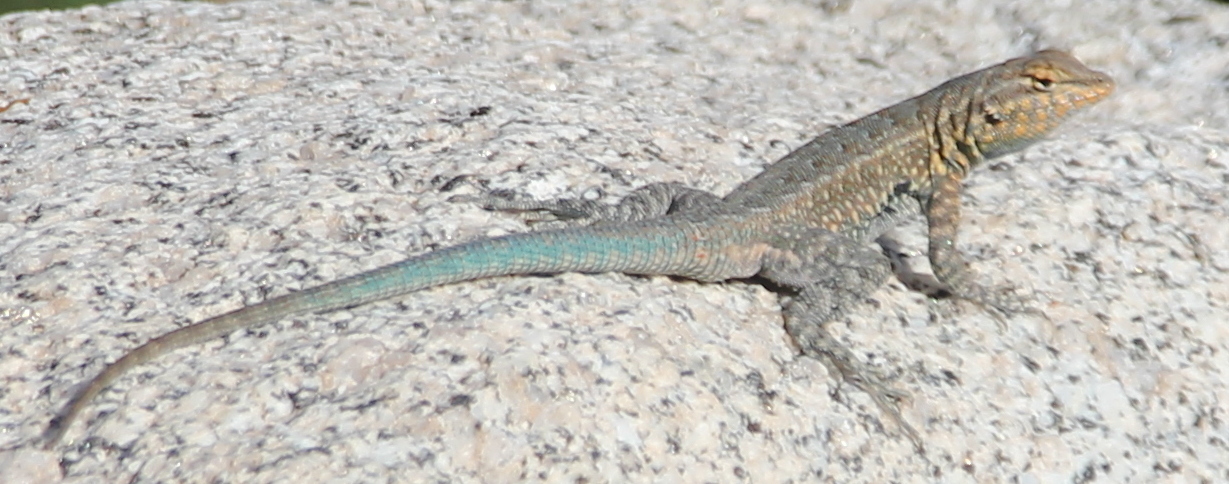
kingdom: Animalia
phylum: Chordata
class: Squamata
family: Phrynosomatidae
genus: Uta
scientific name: Uta stansburiana
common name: Side-blotched lizard
